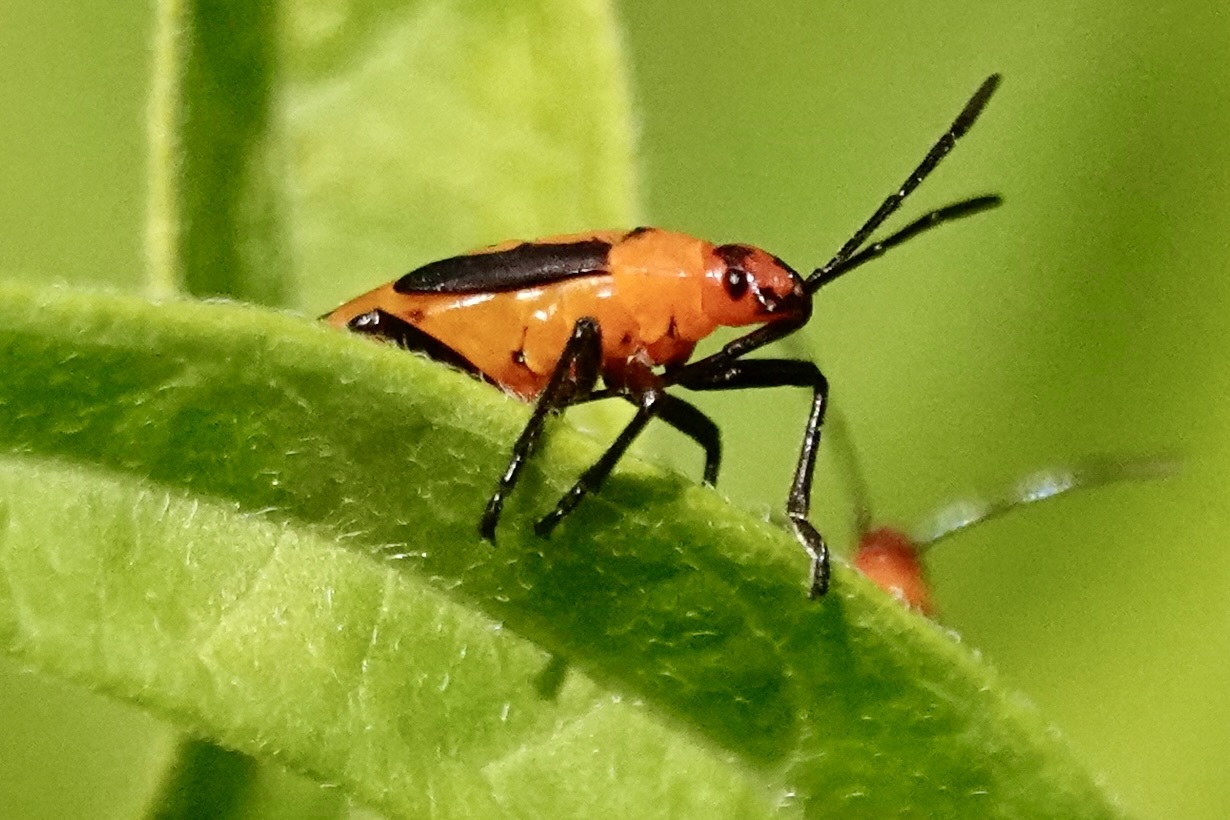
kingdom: Animalia
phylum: Arthropoda
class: Insecta
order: Hemiptera
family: Lygaeidae
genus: Oncopeltus
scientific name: Oncopeltus fasciatus
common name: Large milkweed bug
